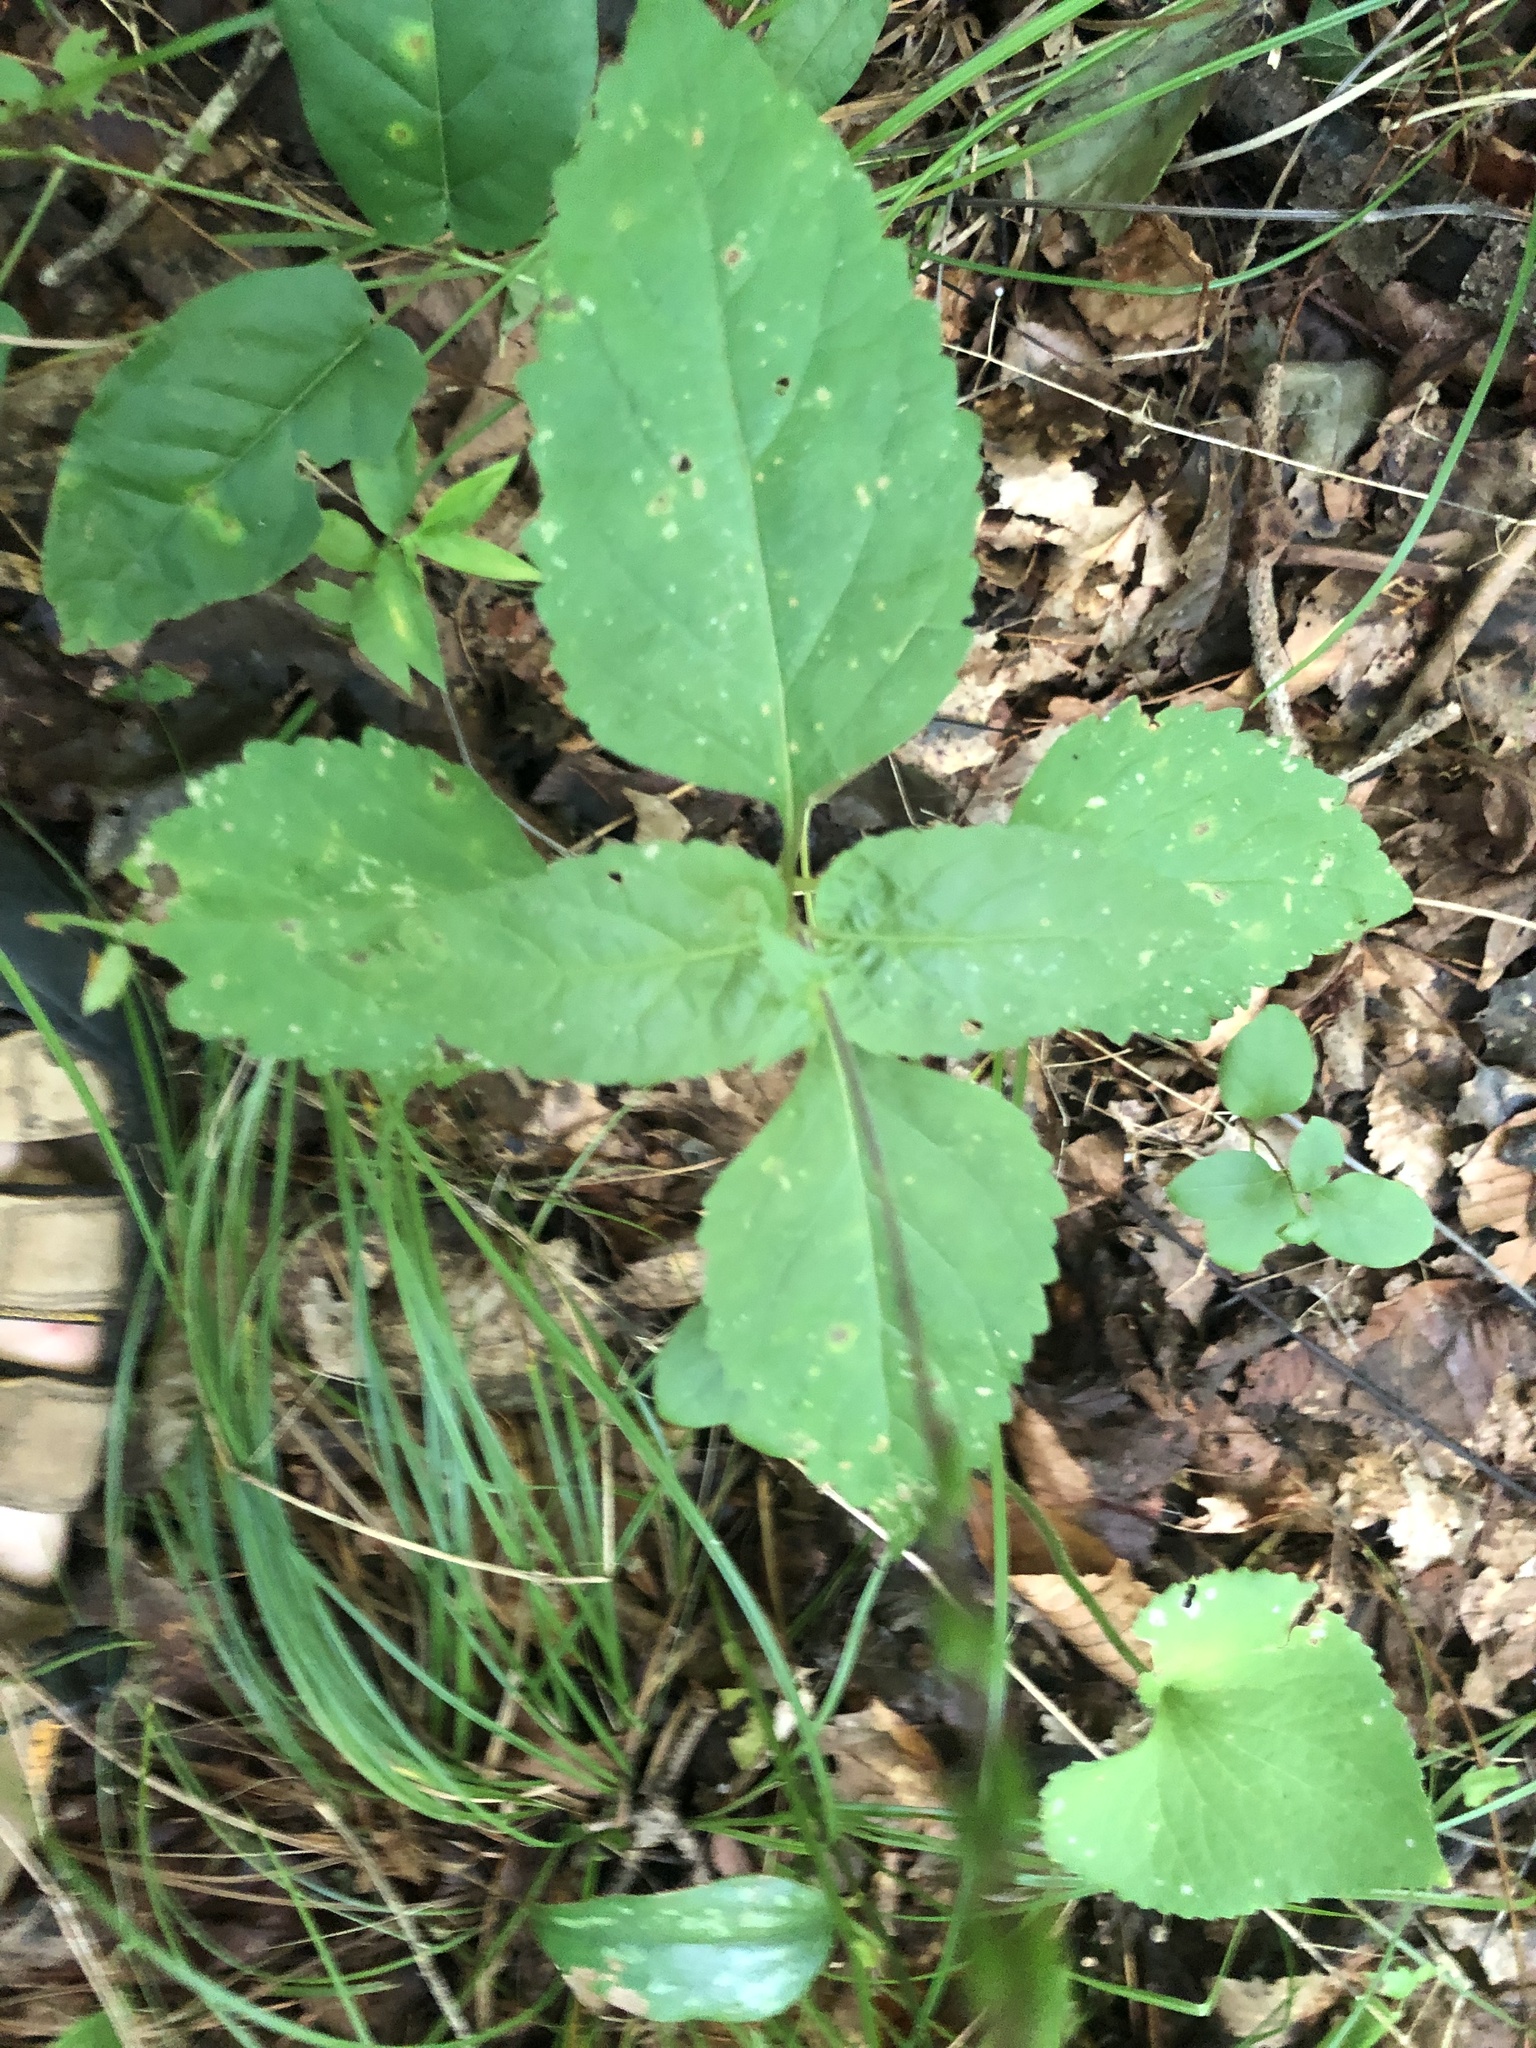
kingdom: Plantae
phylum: Tracheophyta
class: Magnoliopsida
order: Lamiales
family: Phrymaceae
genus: Phryma
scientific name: Phryma leptostachya
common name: American lopseed
